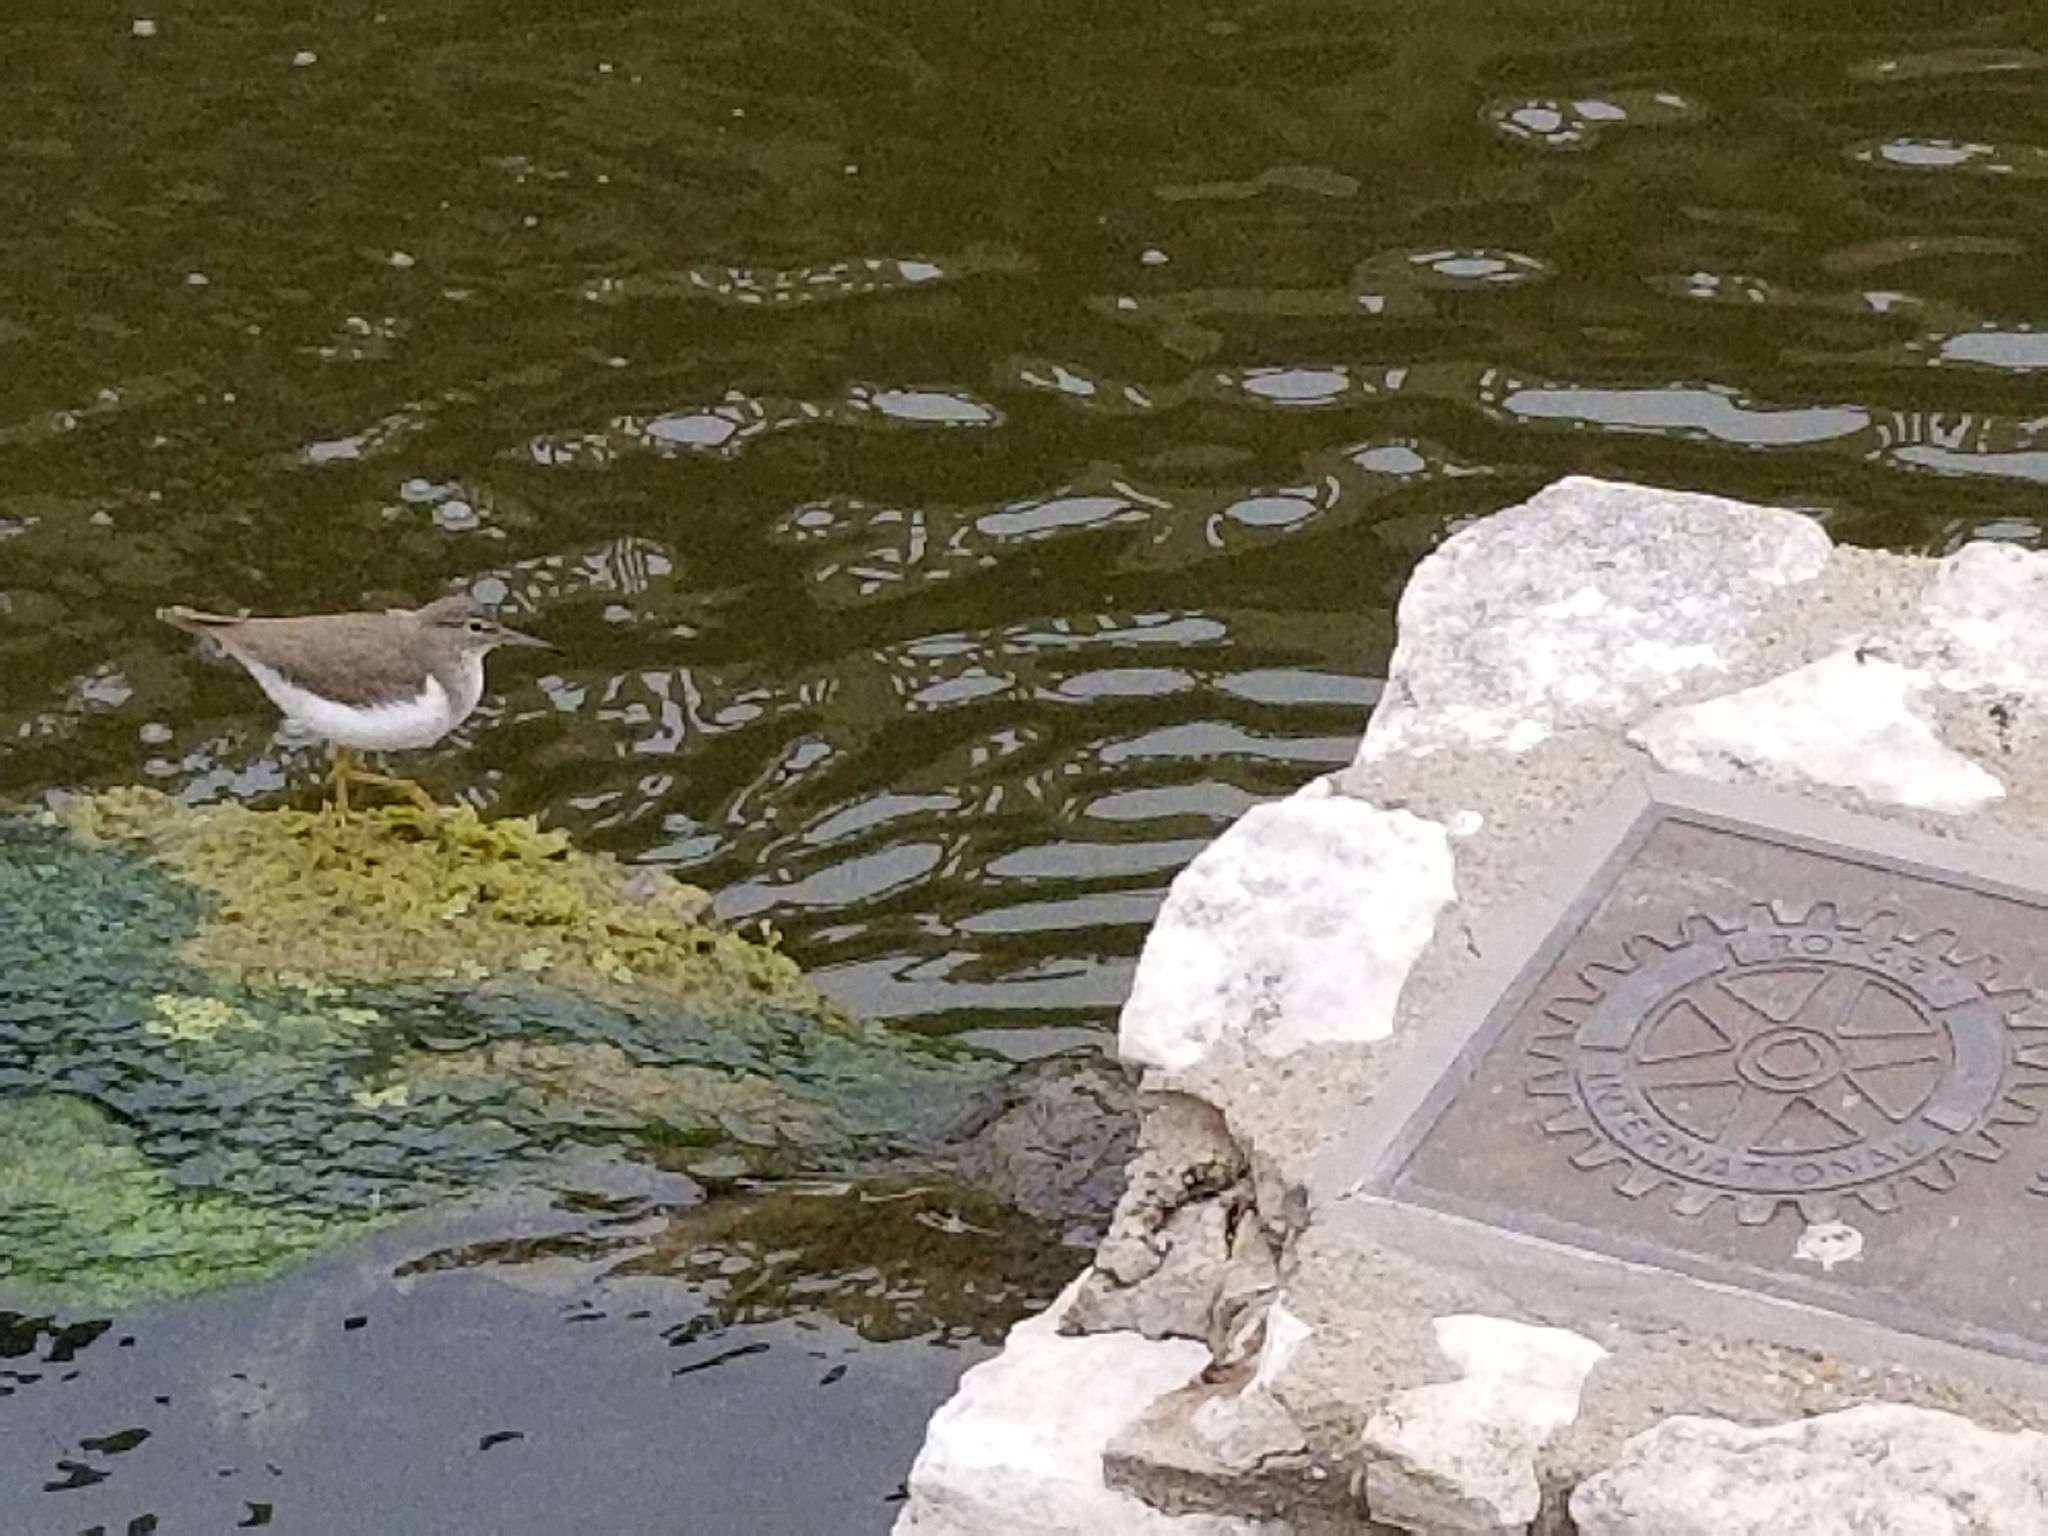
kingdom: Animalia
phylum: Chordata
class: Aves
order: Charadriiformes
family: Scolopacidae
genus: Actitis
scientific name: Actitis macularius
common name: Spotted sandpiper
